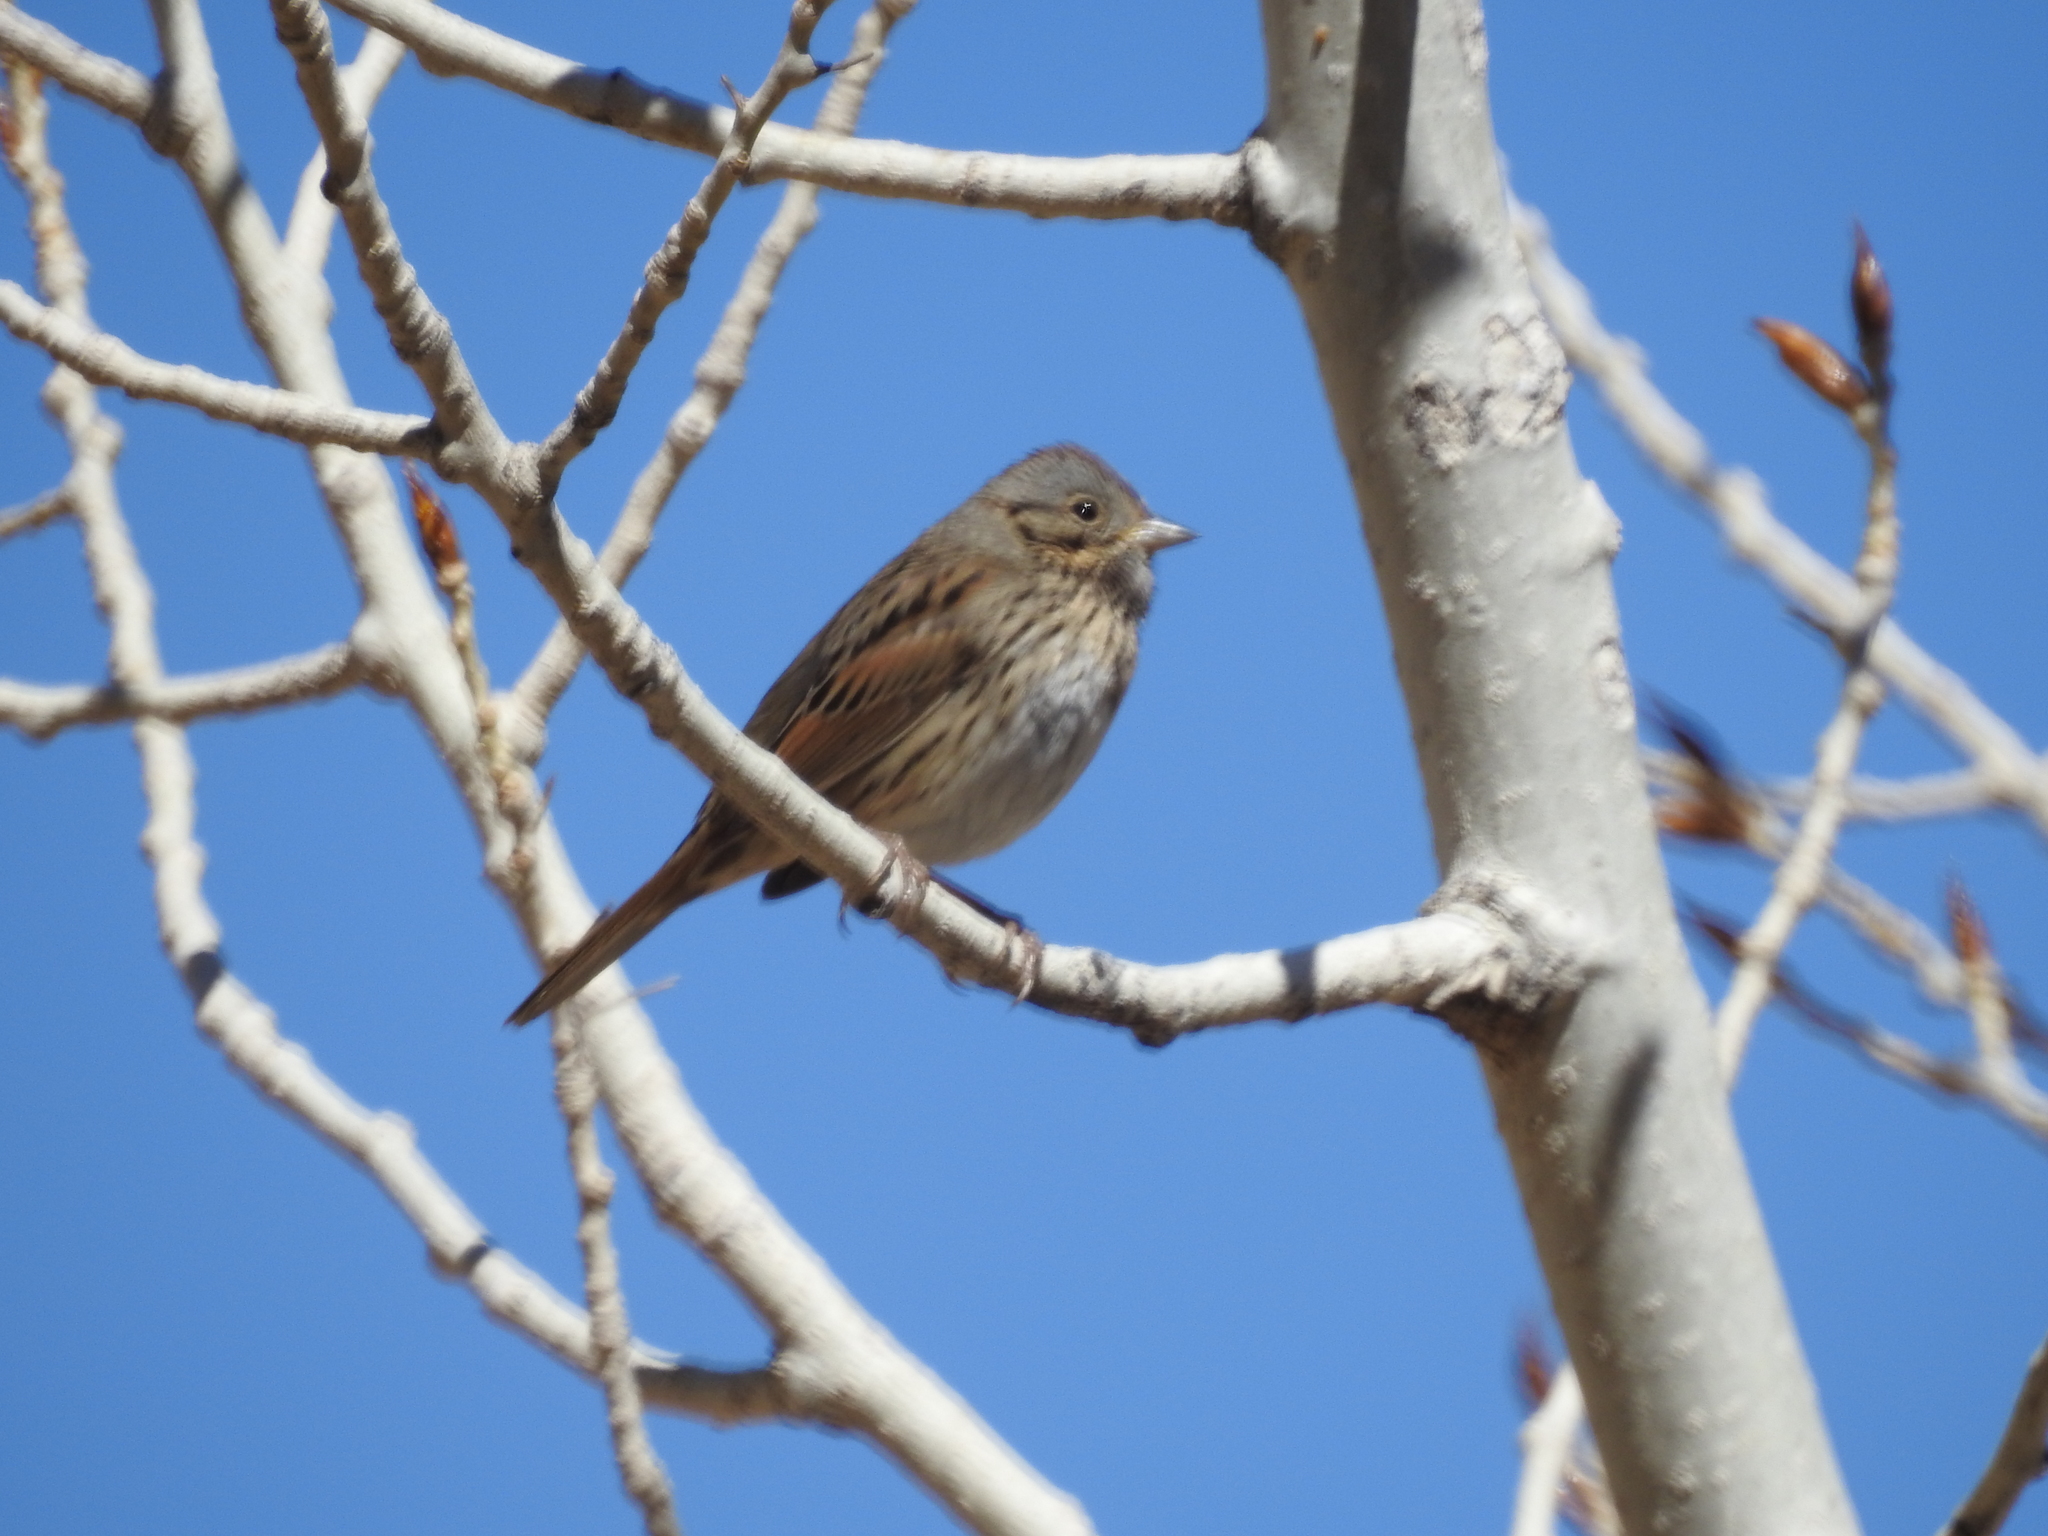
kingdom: Animalia
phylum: Chordata
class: Aves
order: Passeriformes
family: Passerellidae
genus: Melospiza
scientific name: Melospiza lincolnii
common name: Lincoln's sparrow
